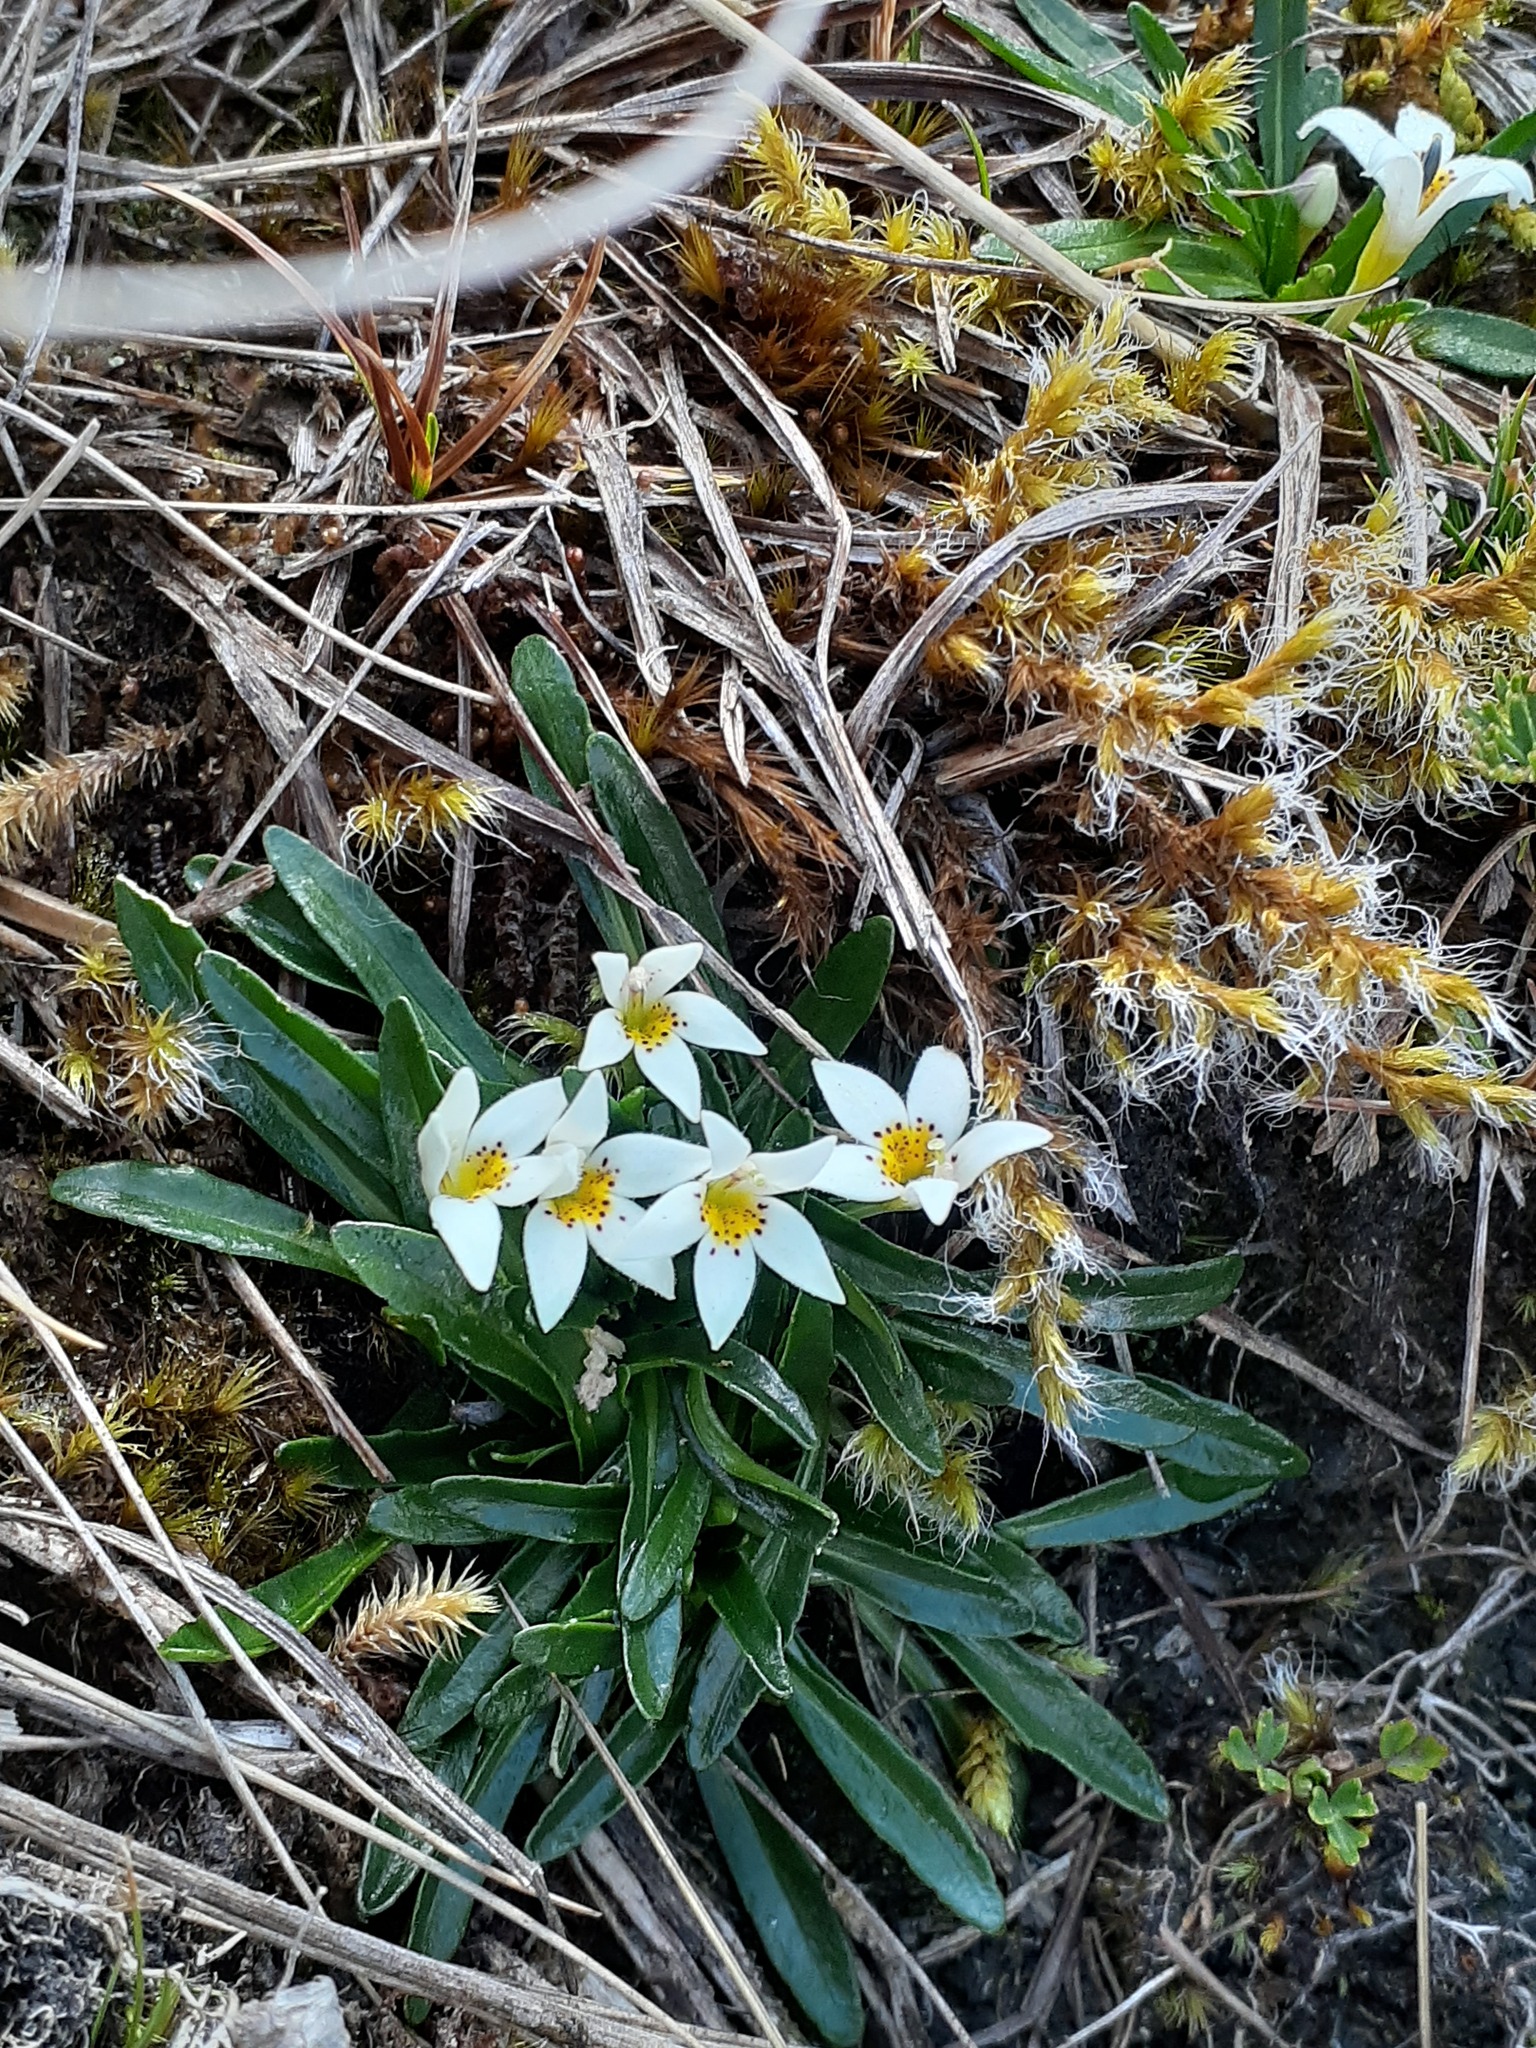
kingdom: Plantae
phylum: Tracheophyta
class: Magnoliopsida
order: Asterales
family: Campanulaceae
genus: Lysipomia
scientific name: Lysipomia laciniata
